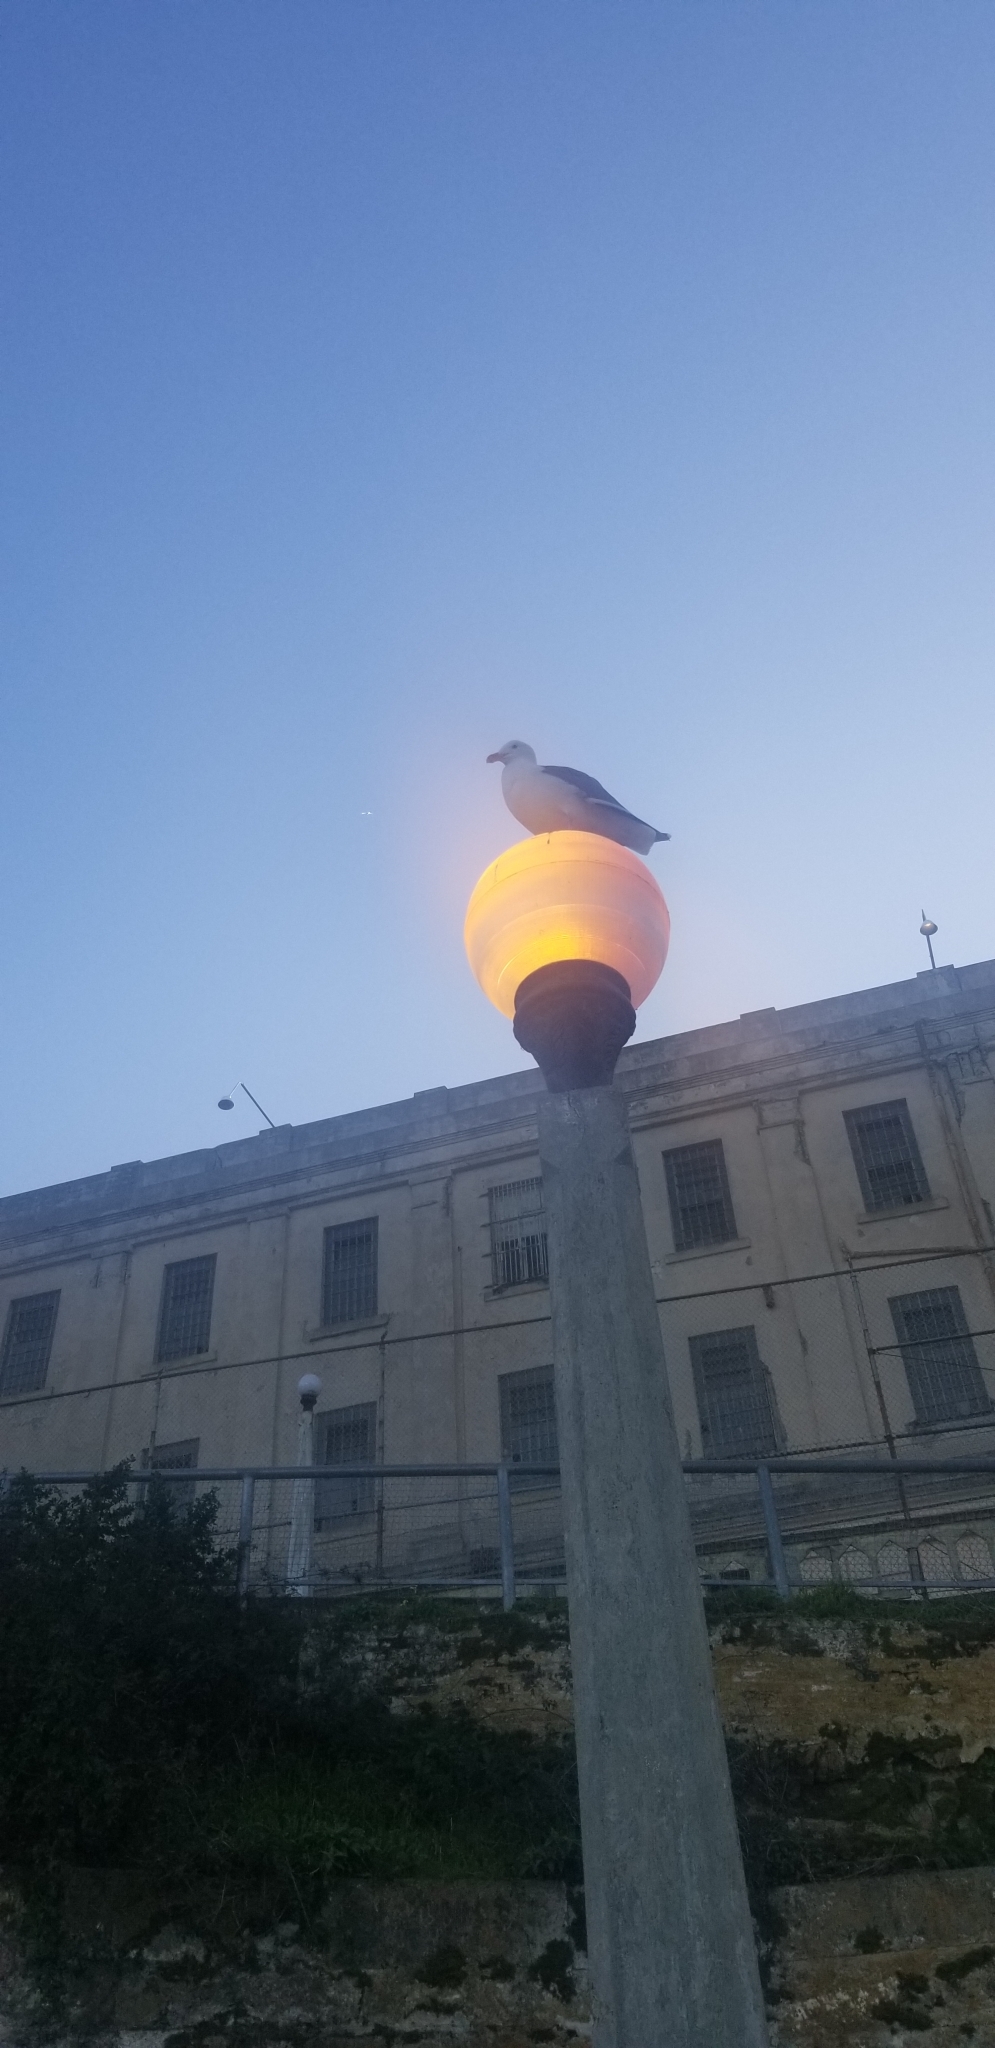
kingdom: Animalia
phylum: Chordata
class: Aves
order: Charadriiformes
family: Laridae
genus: Larus
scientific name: Larus occidentalis
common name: Western gull
